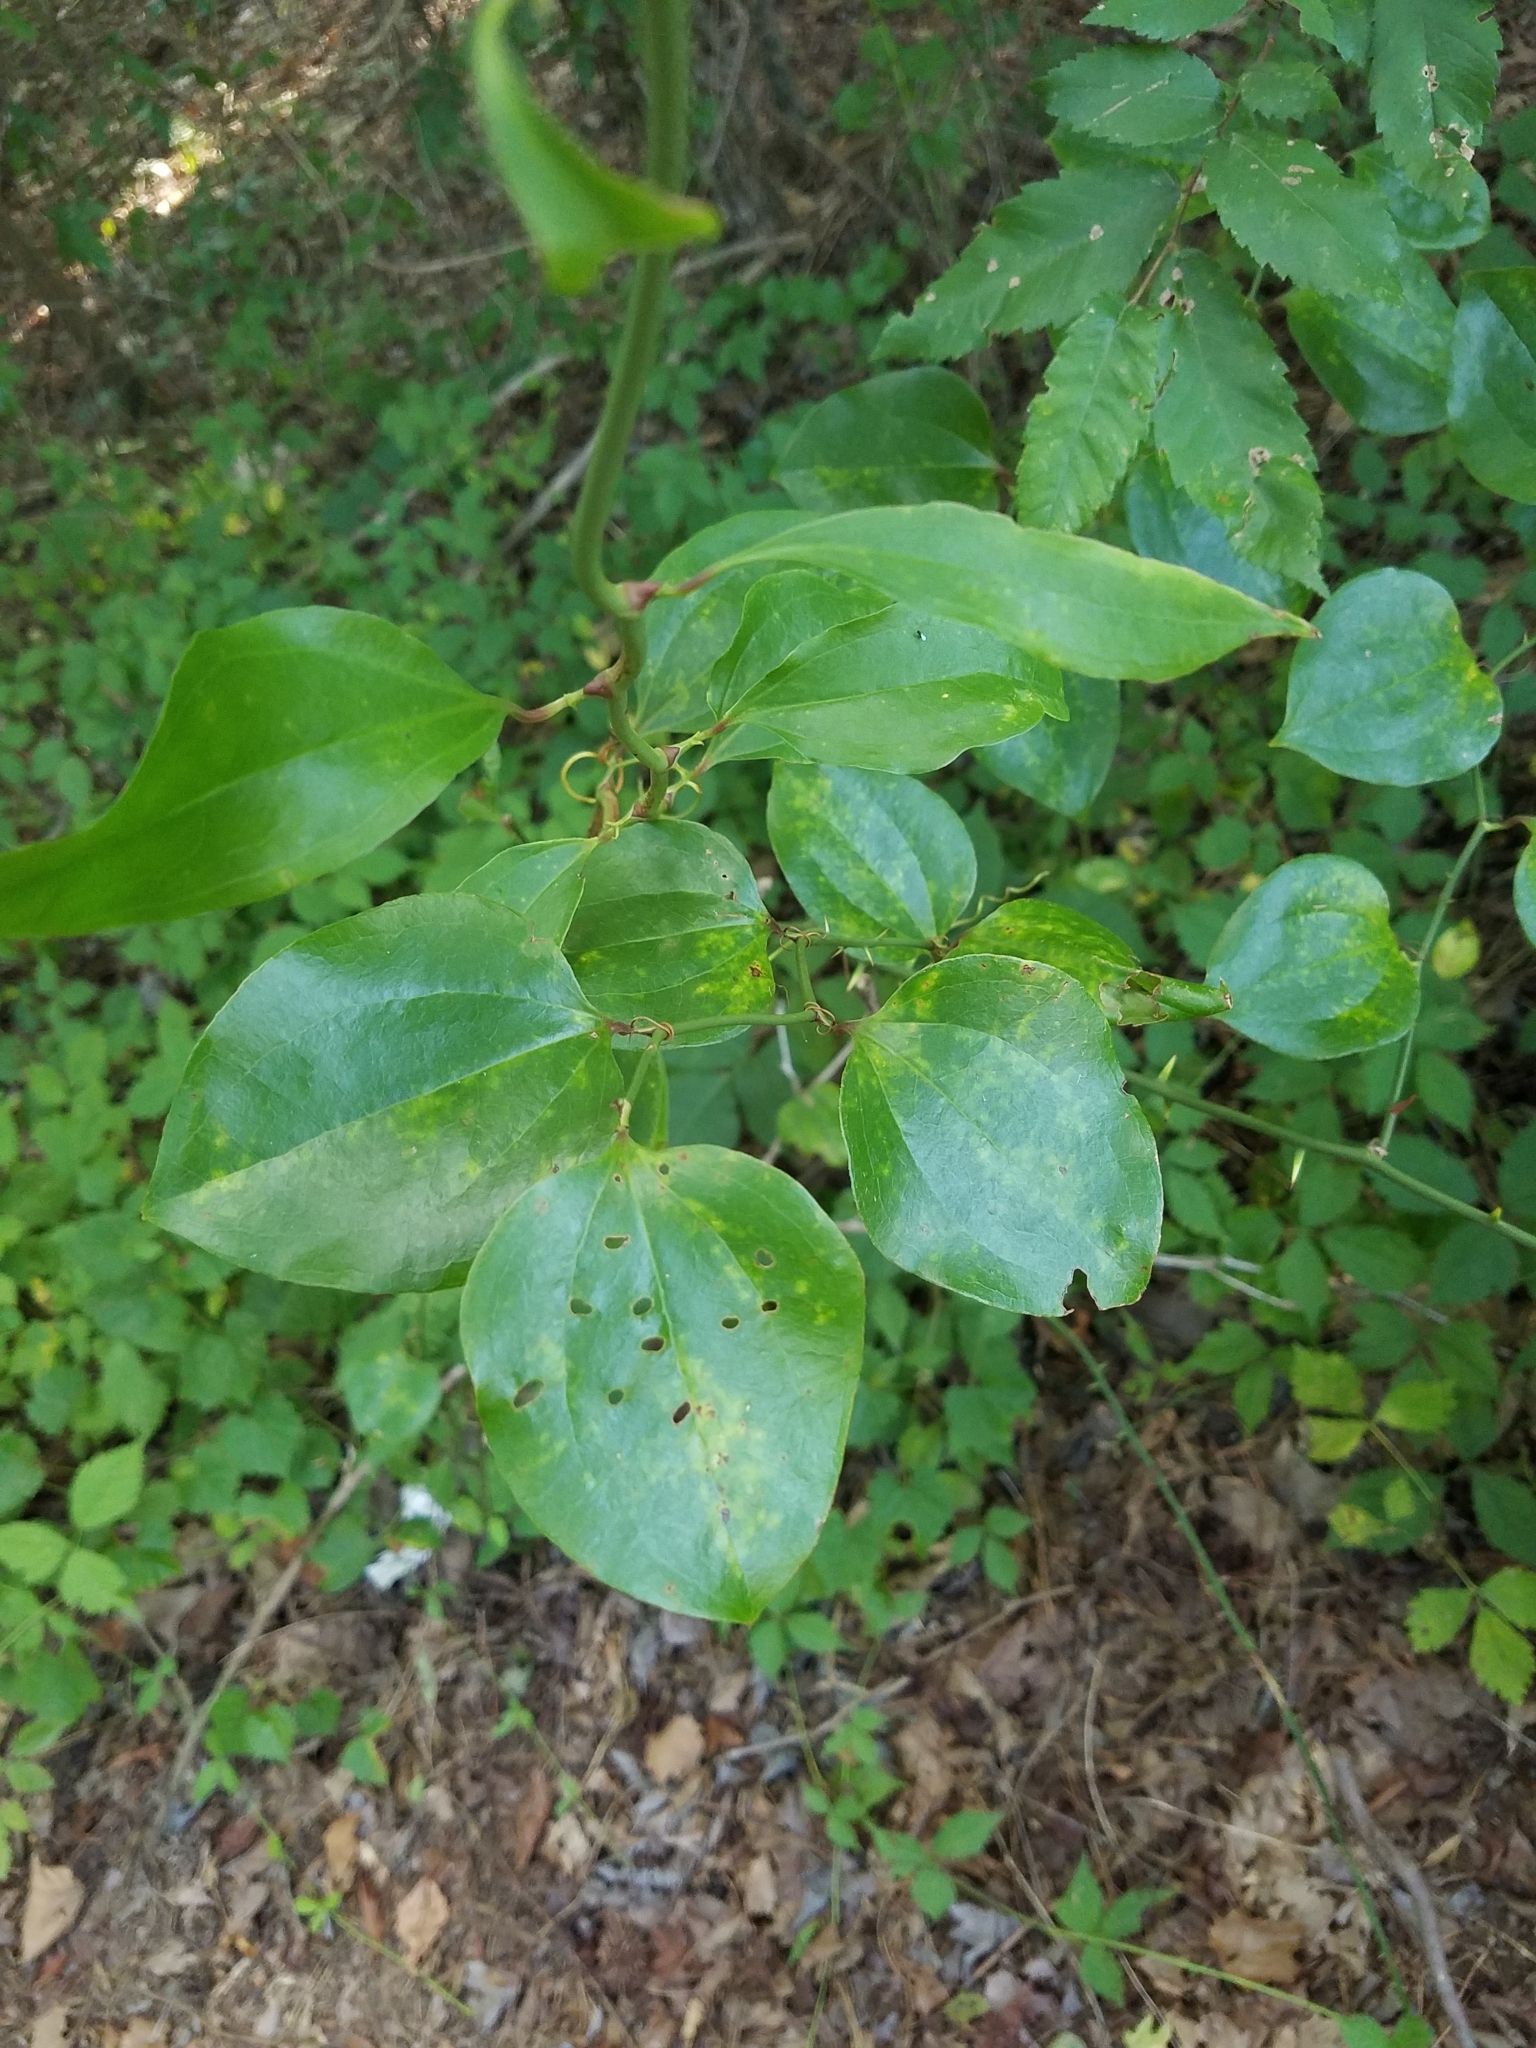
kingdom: Plantae
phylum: Tracheophyta
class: Liliopsida
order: Liliales
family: Smilacaceae
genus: Smilax
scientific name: Smilax rotundifolia
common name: Bullbriar
